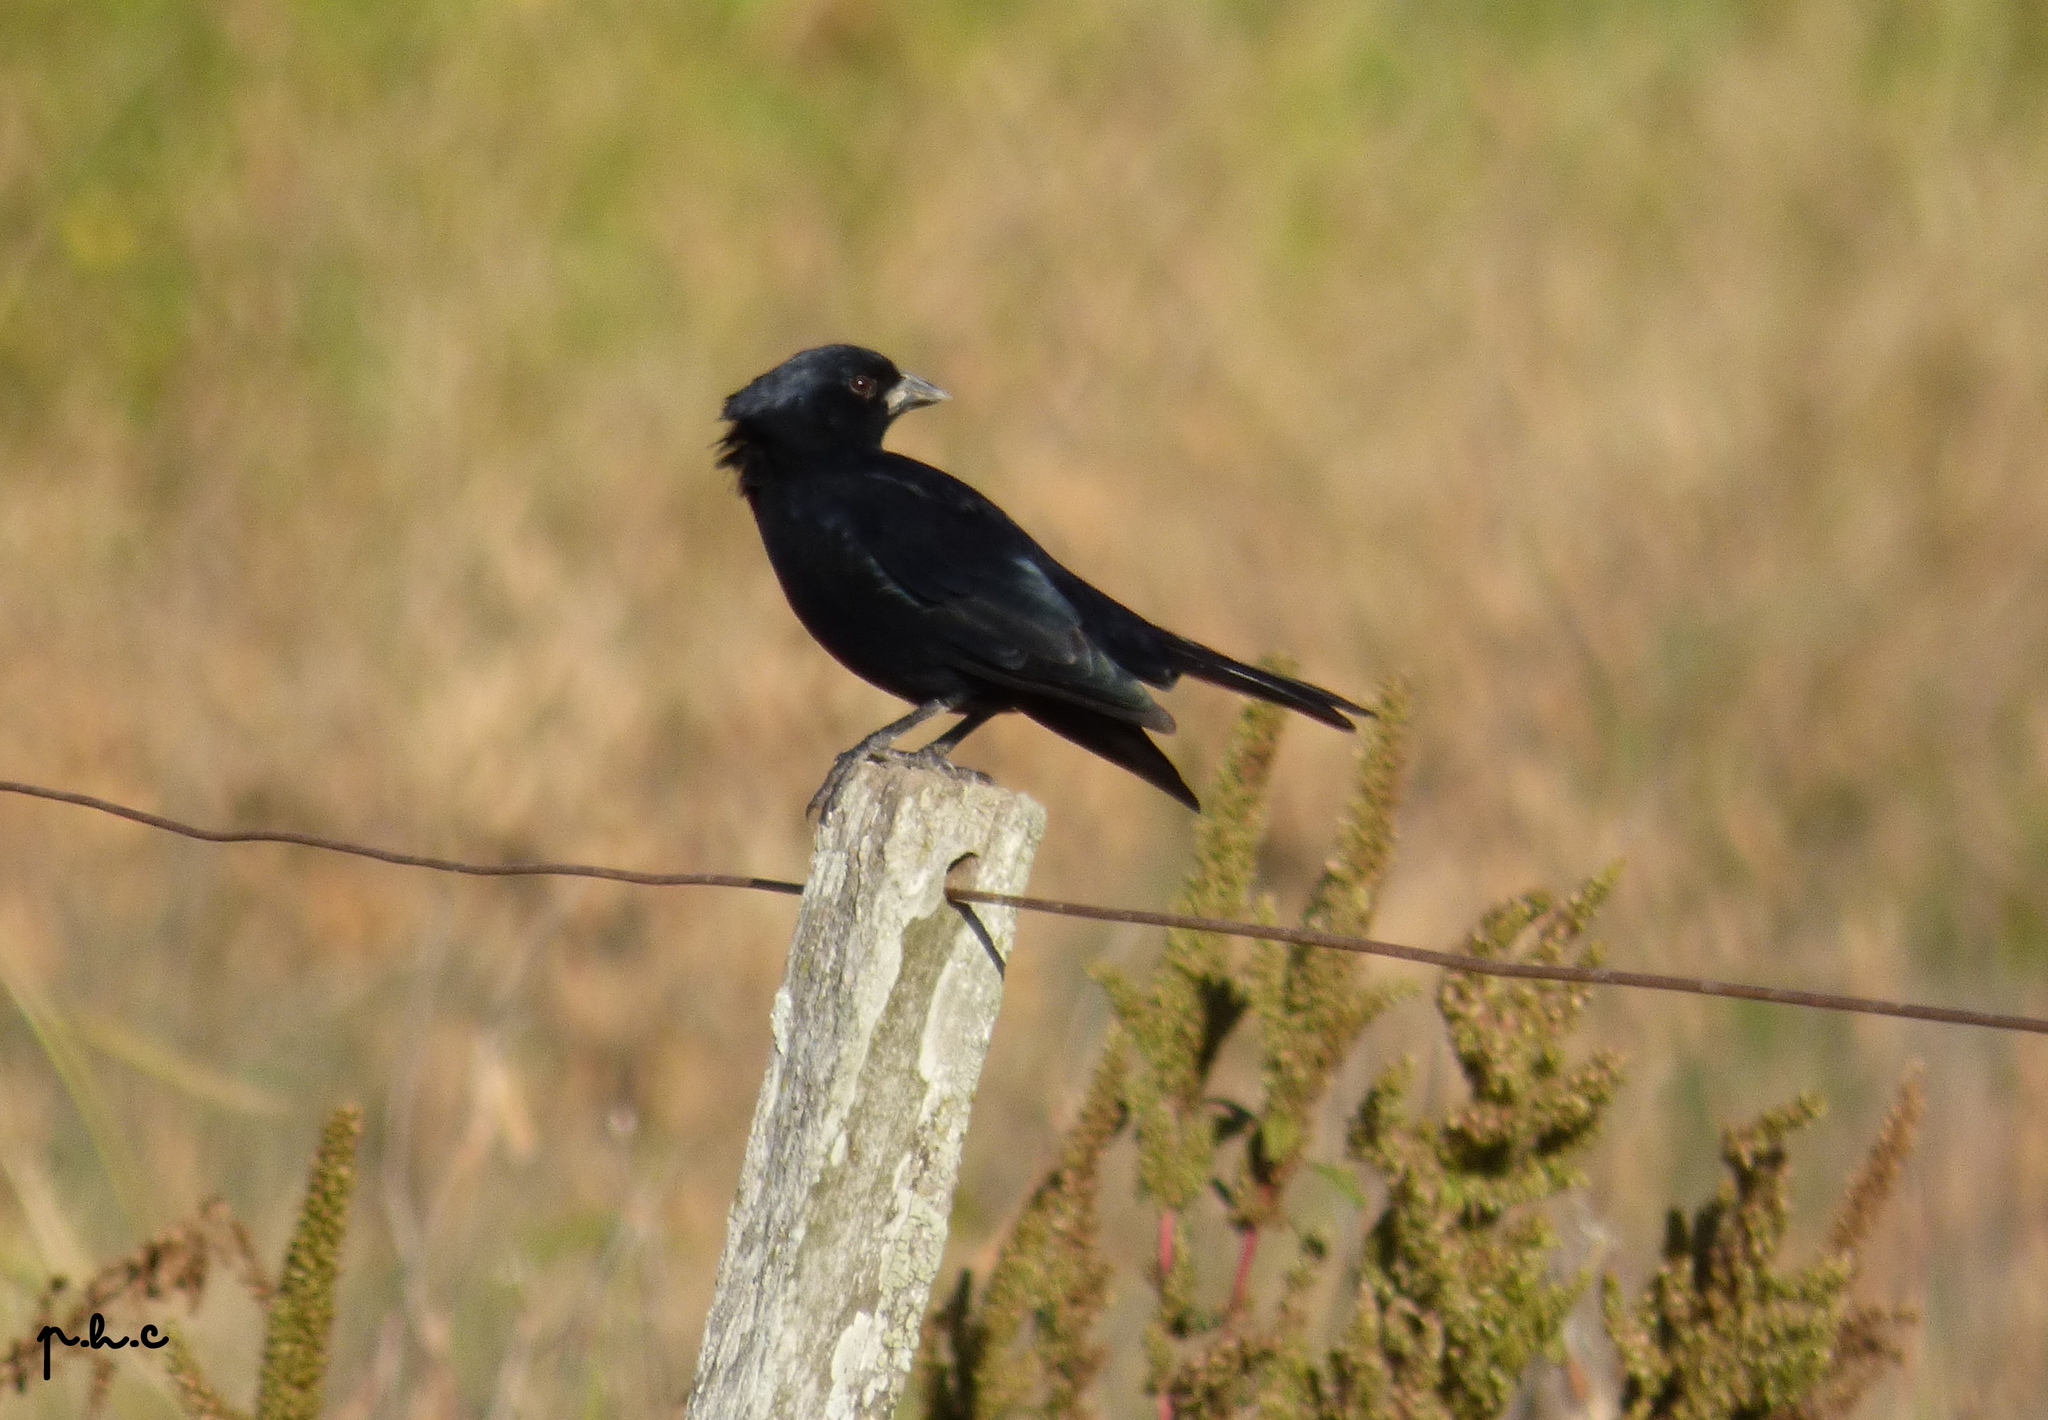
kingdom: Animalia
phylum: Chordata
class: Aves
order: Passeriformes
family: Icteridae
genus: Molothrus
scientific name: Molothrus rufoaxillaris
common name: Screaming cowbird
